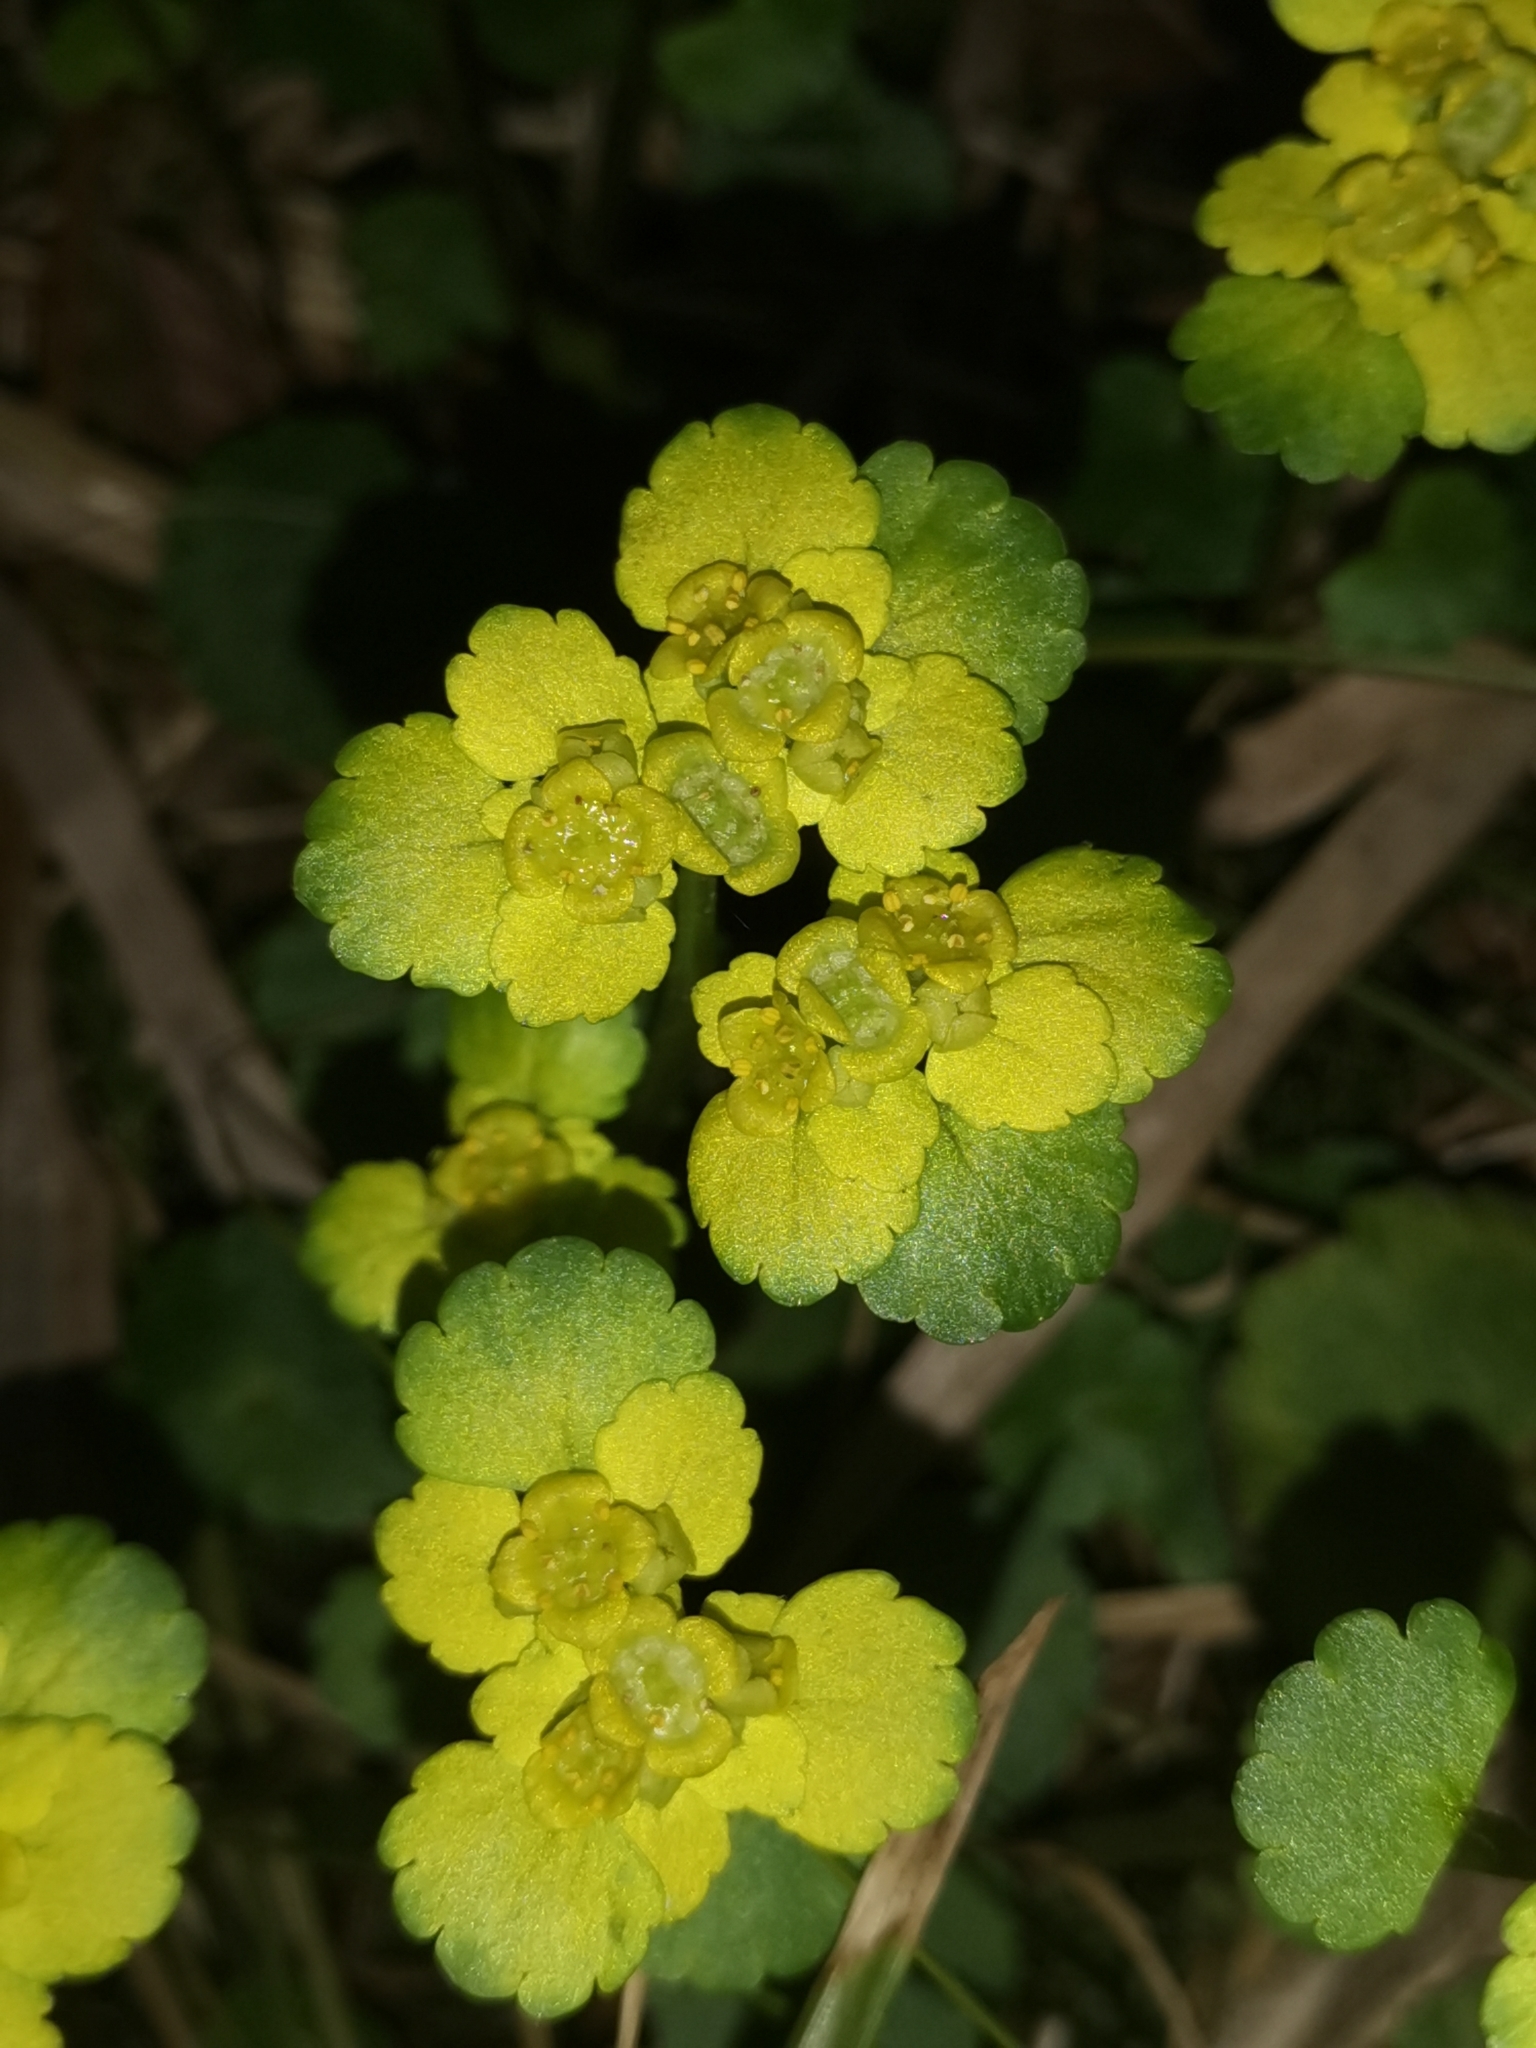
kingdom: Plantae
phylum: Tracheophyta
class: Magnoliopsida
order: Saxifragales
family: Saxifragaceae
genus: Chrysosplenium
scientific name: Chrysosplenium alternifolium
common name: Alternate-leaved golden-saxifrage
